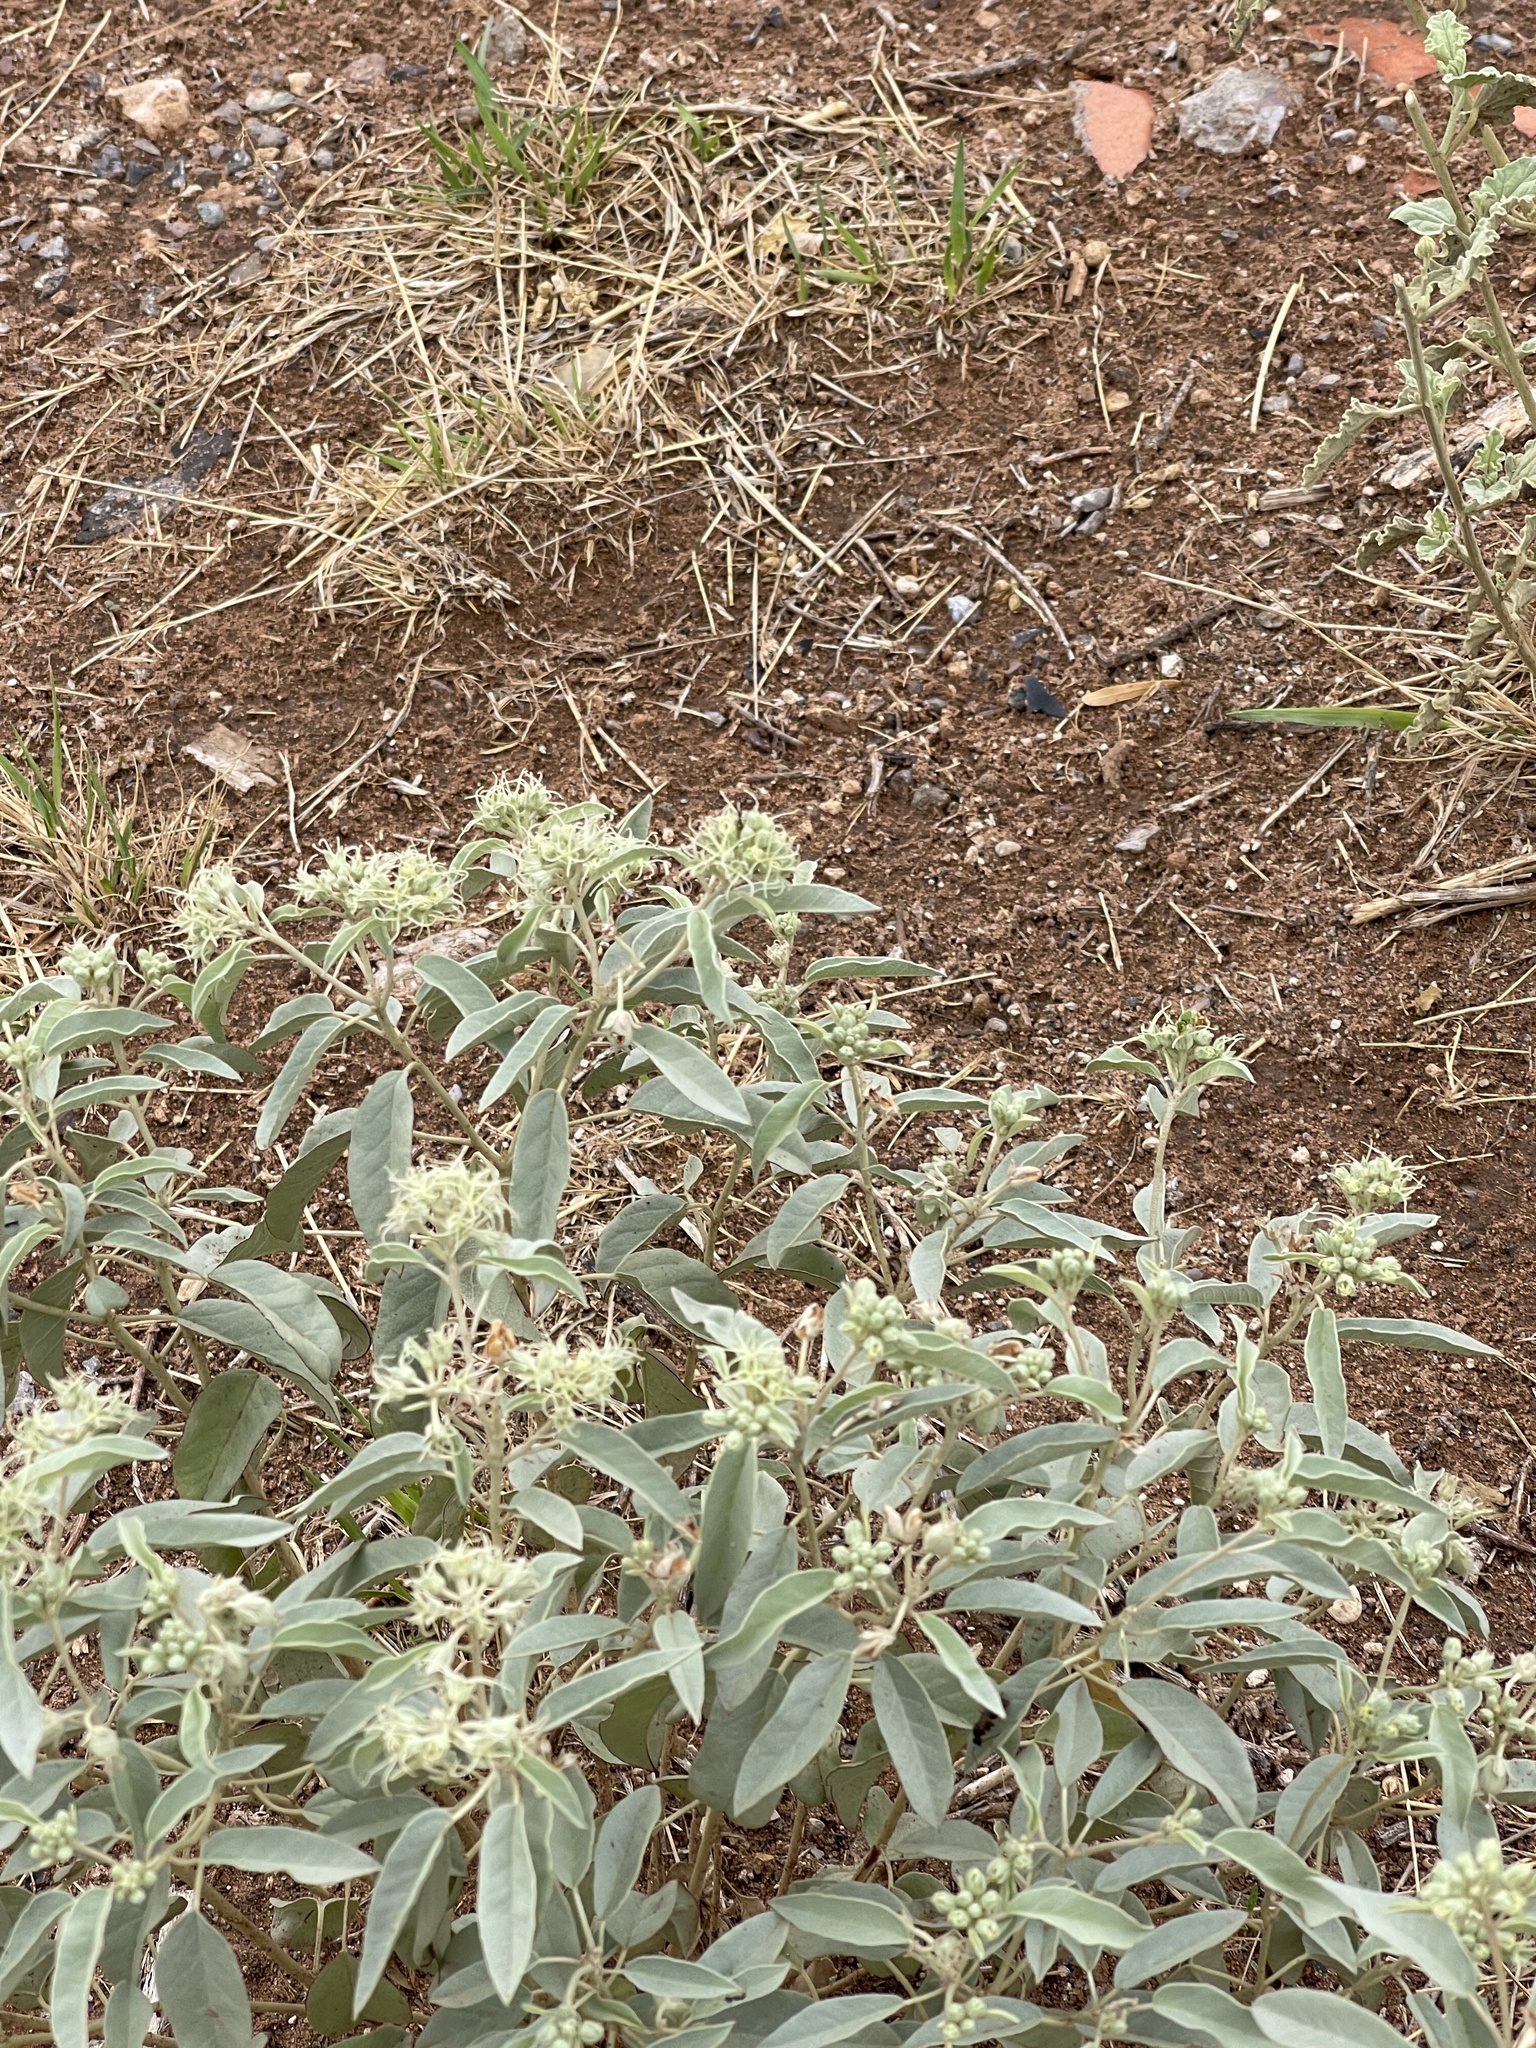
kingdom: Plantae
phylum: Tracheophyta
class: Magnoliopsida
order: Malpighiales
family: Euphorbiaceae
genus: Croton
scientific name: Croton pottsii
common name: Leatherweed
